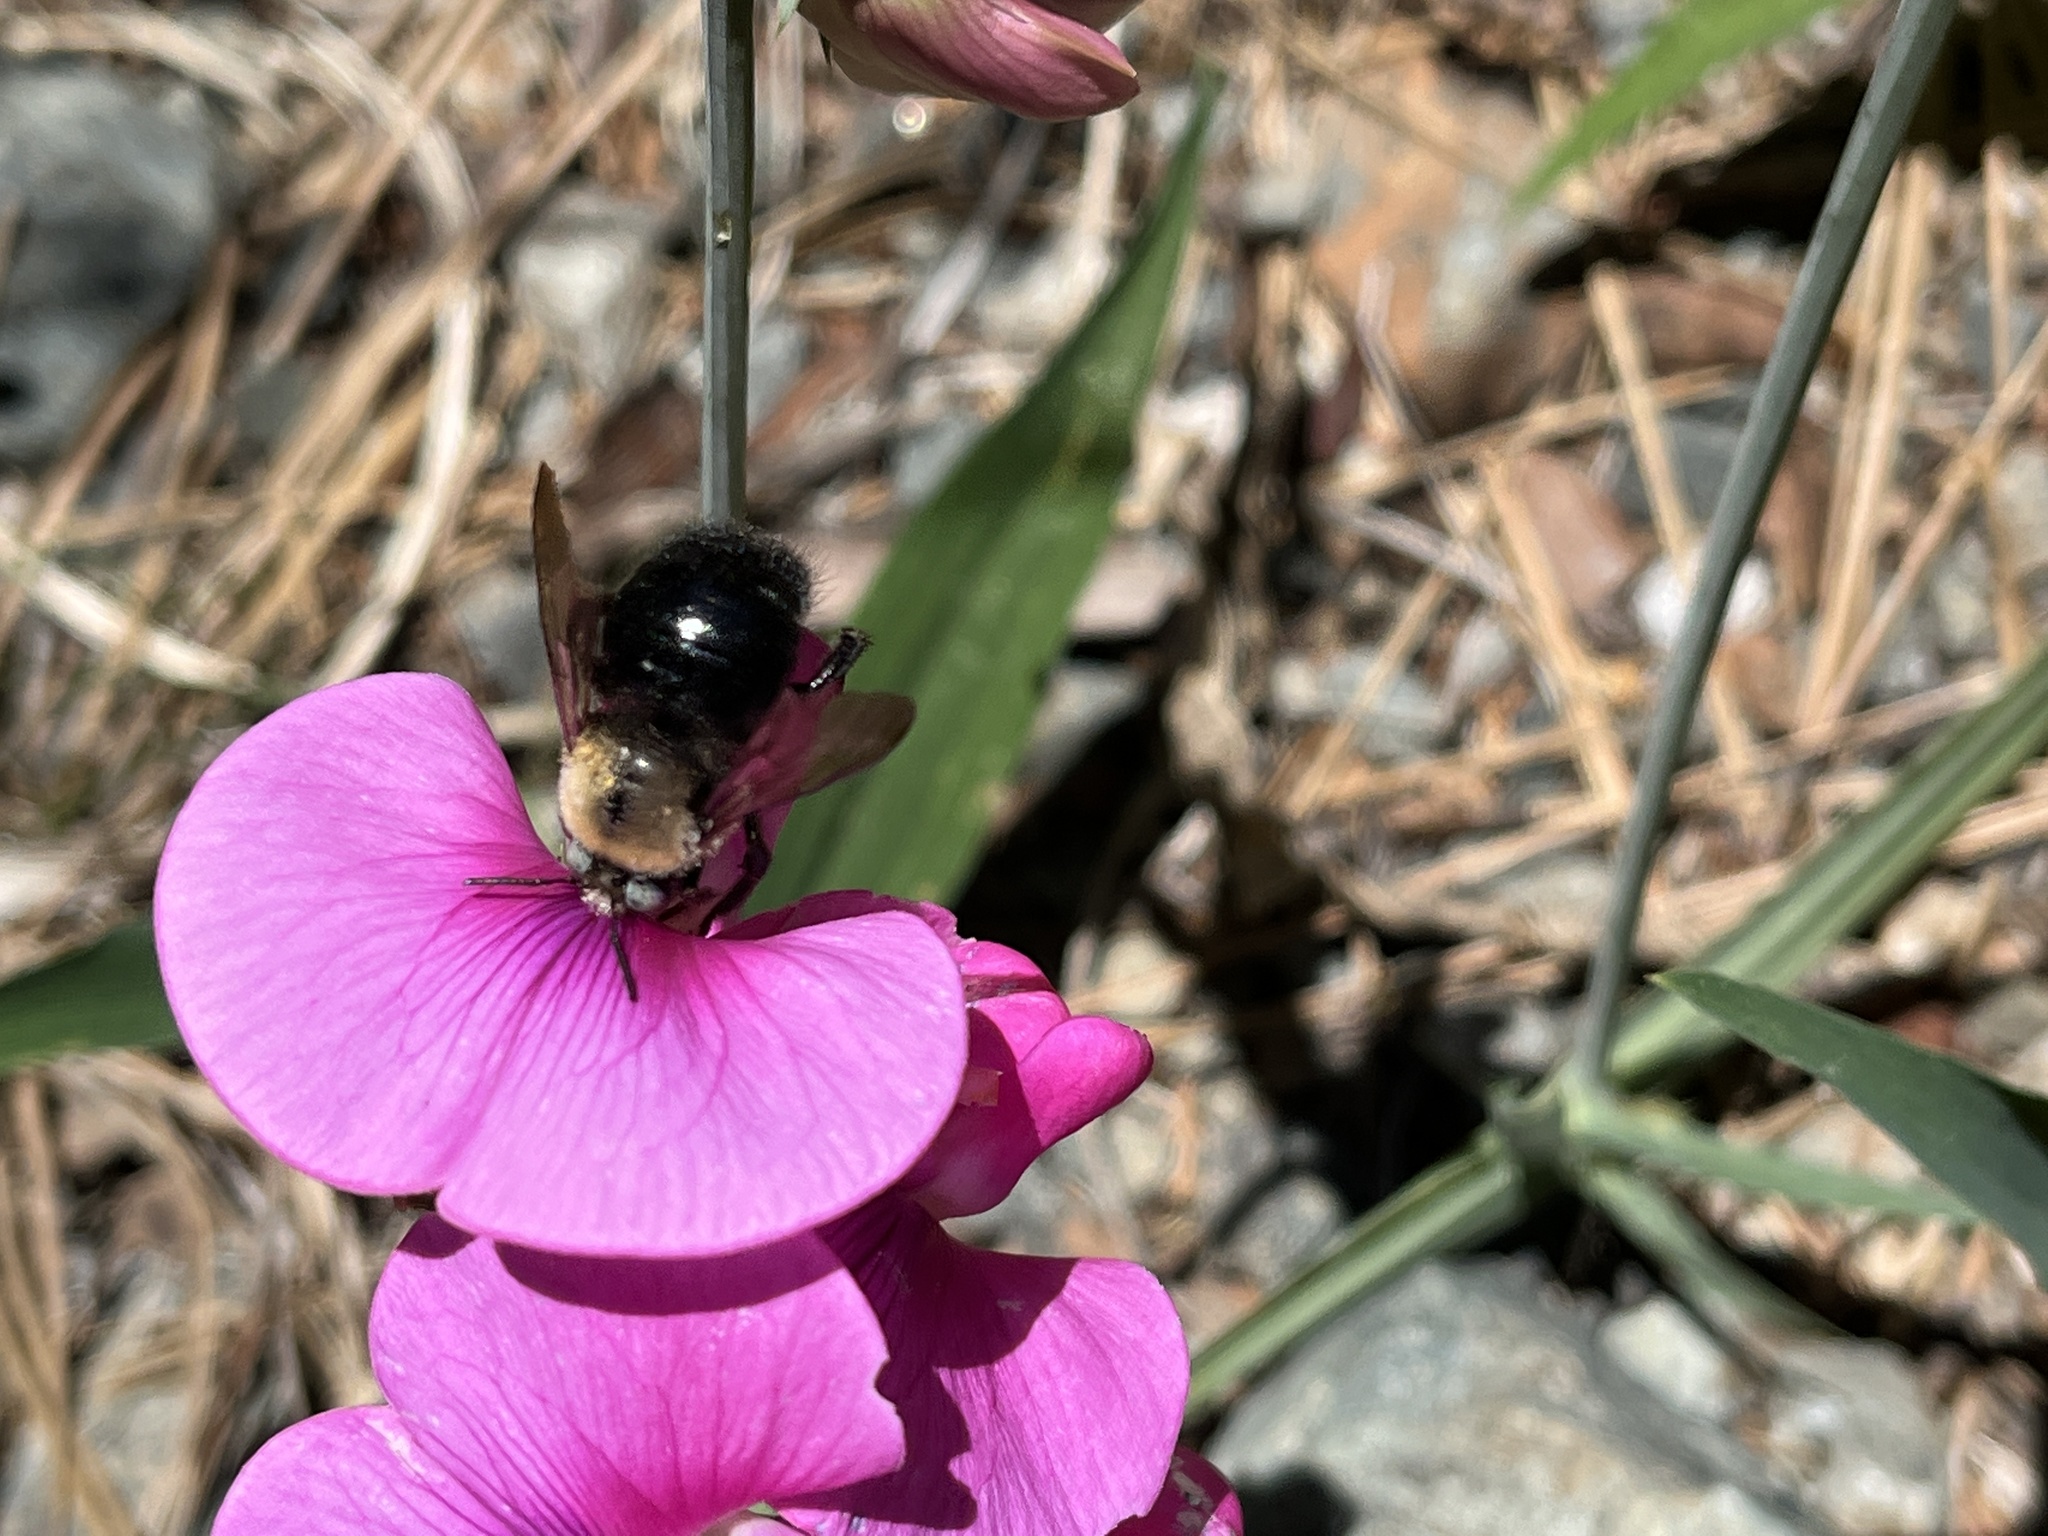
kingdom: Animalia
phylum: Arthropoda
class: Insecta
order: Hymenoptera
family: Apidae
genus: Xylocopa
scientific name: Xylocopa tabaniformis
